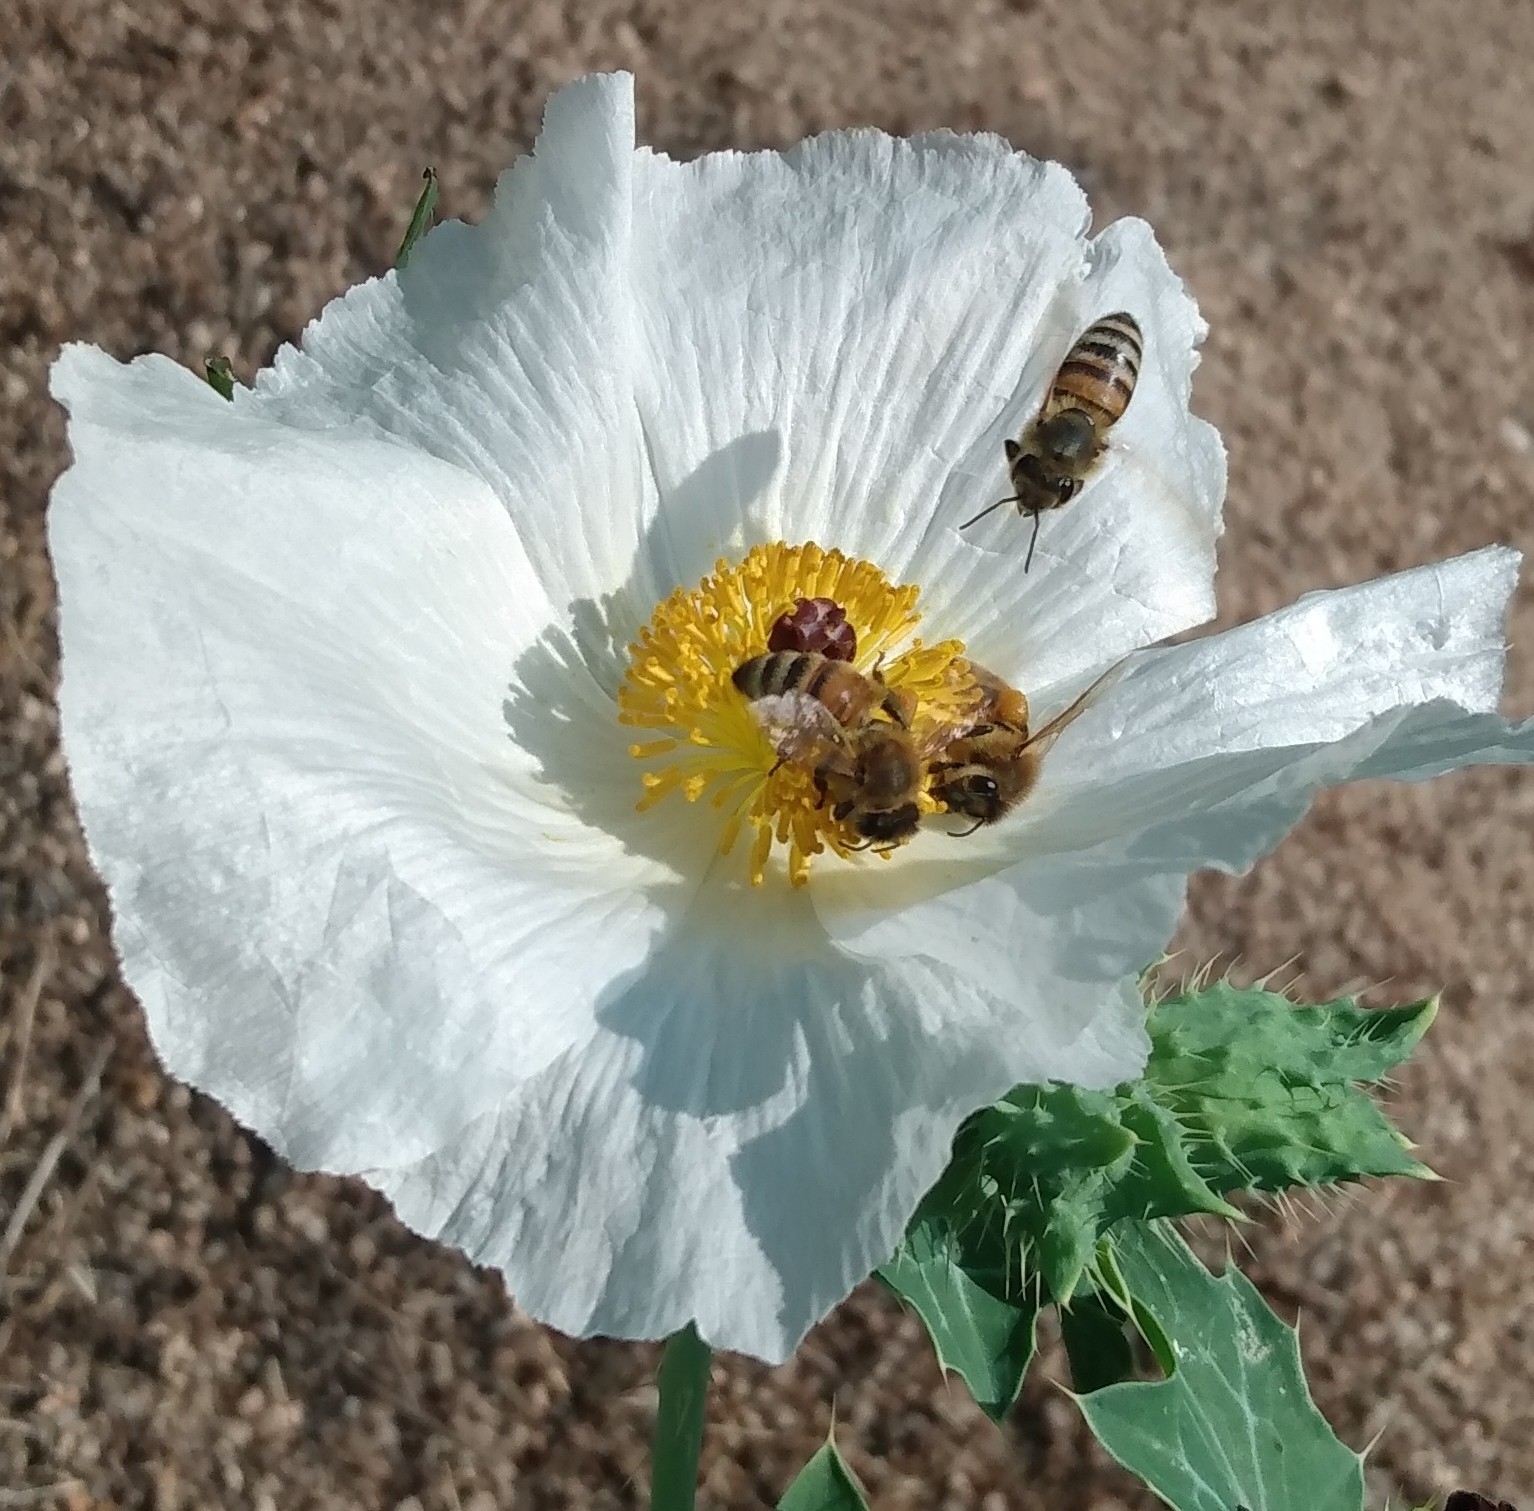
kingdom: Animalia
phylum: Arthropoda
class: Insecta
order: Hymenoptera
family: Apidae
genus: Apis
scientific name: Apis mellifera
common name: Honey bee
